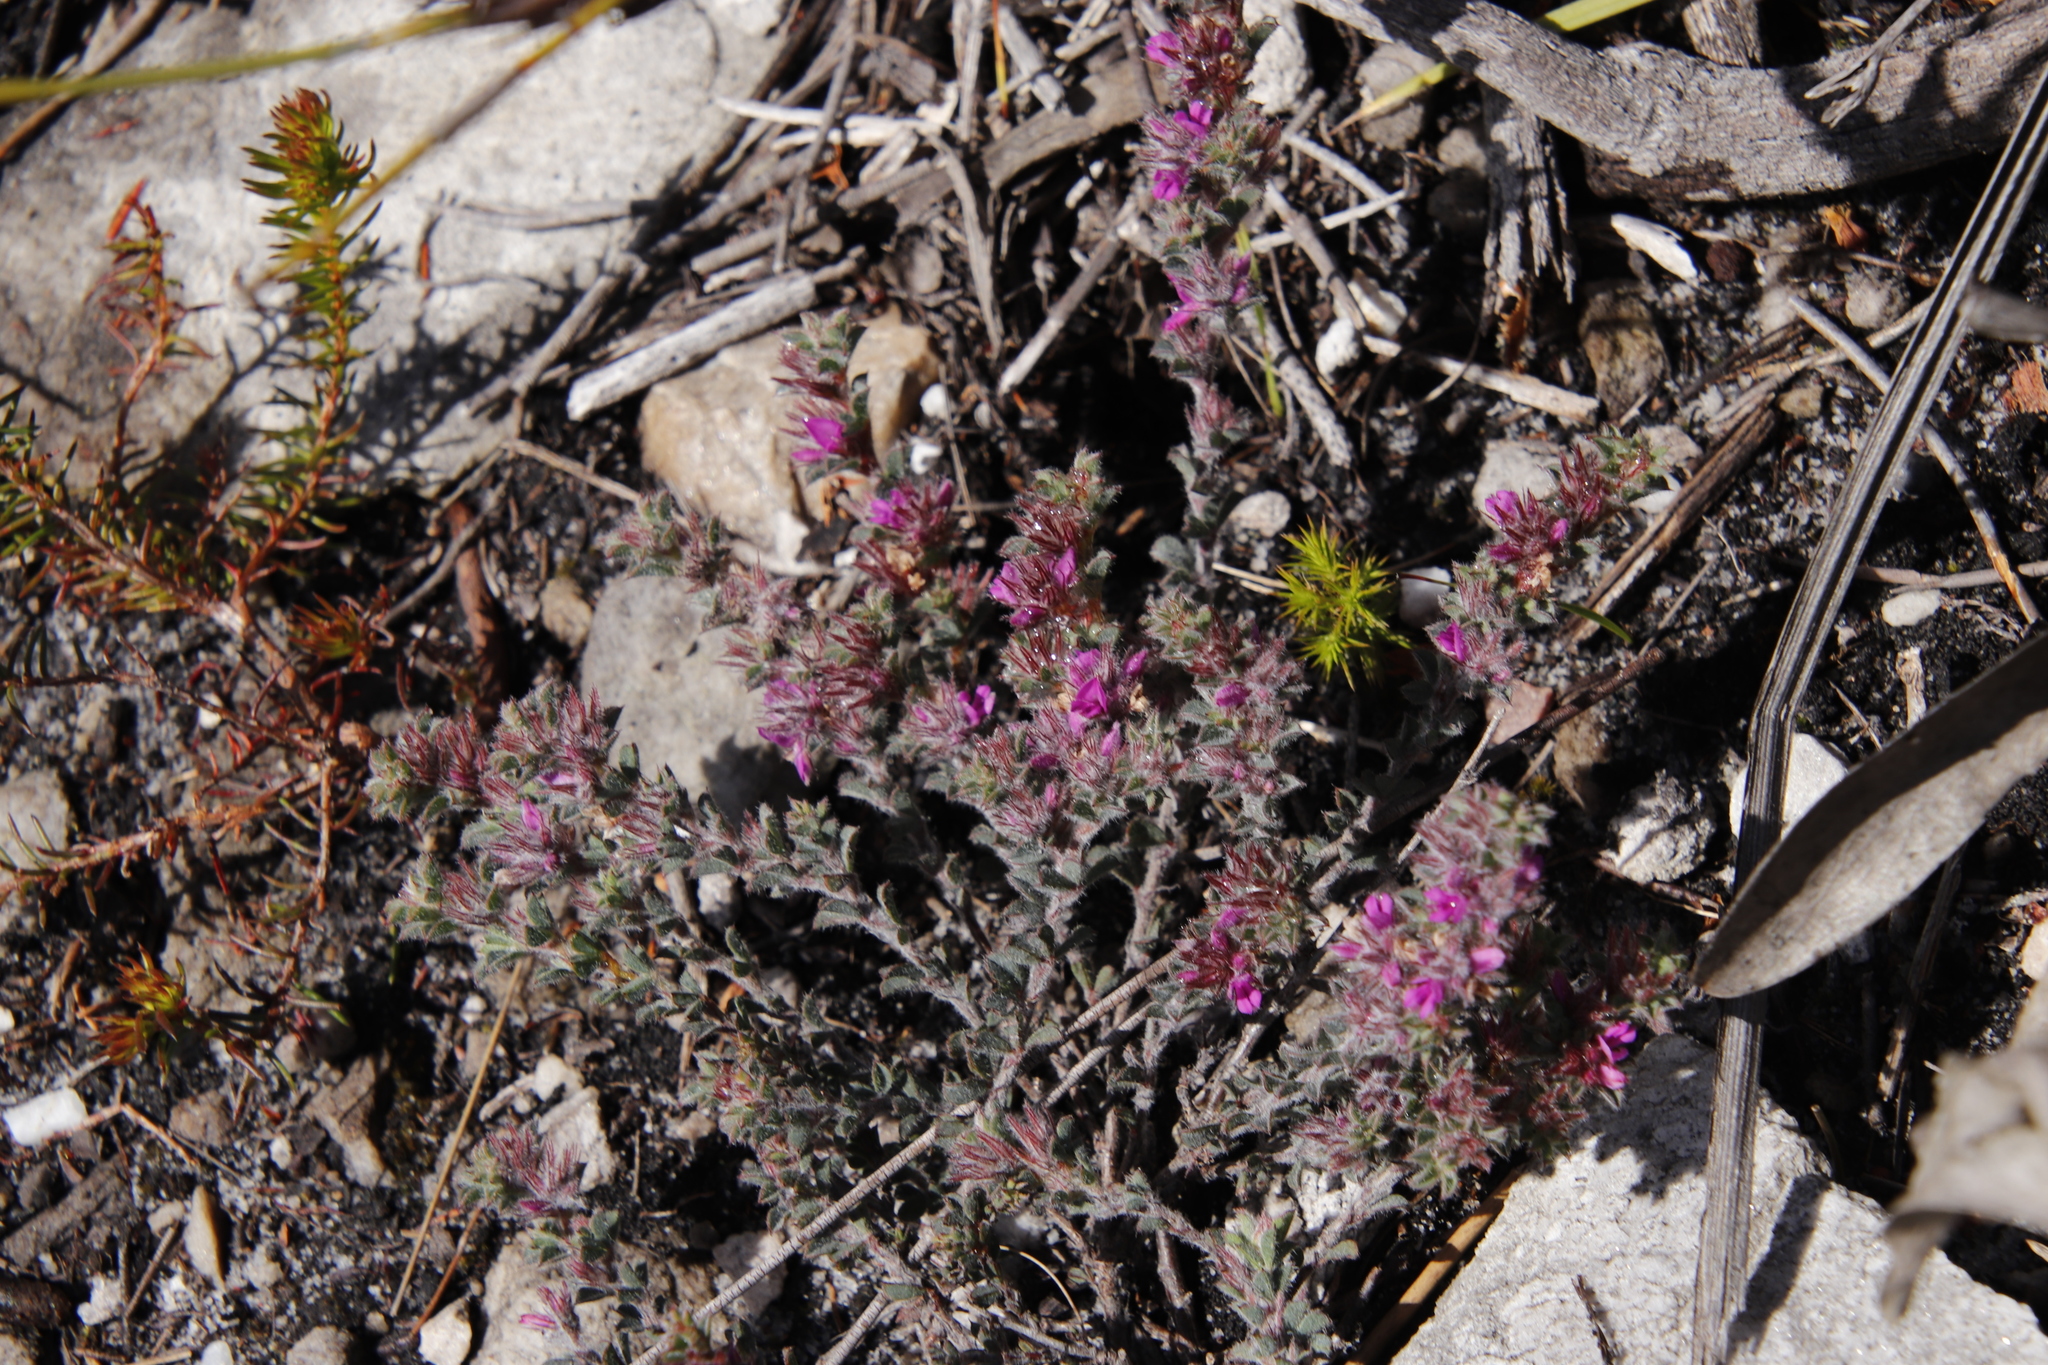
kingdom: Plantae
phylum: Tracheophyta
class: Magnoliopsida
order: Fabales
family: Fabaceae
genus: Indigofera
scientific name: Indigofera glomerata
